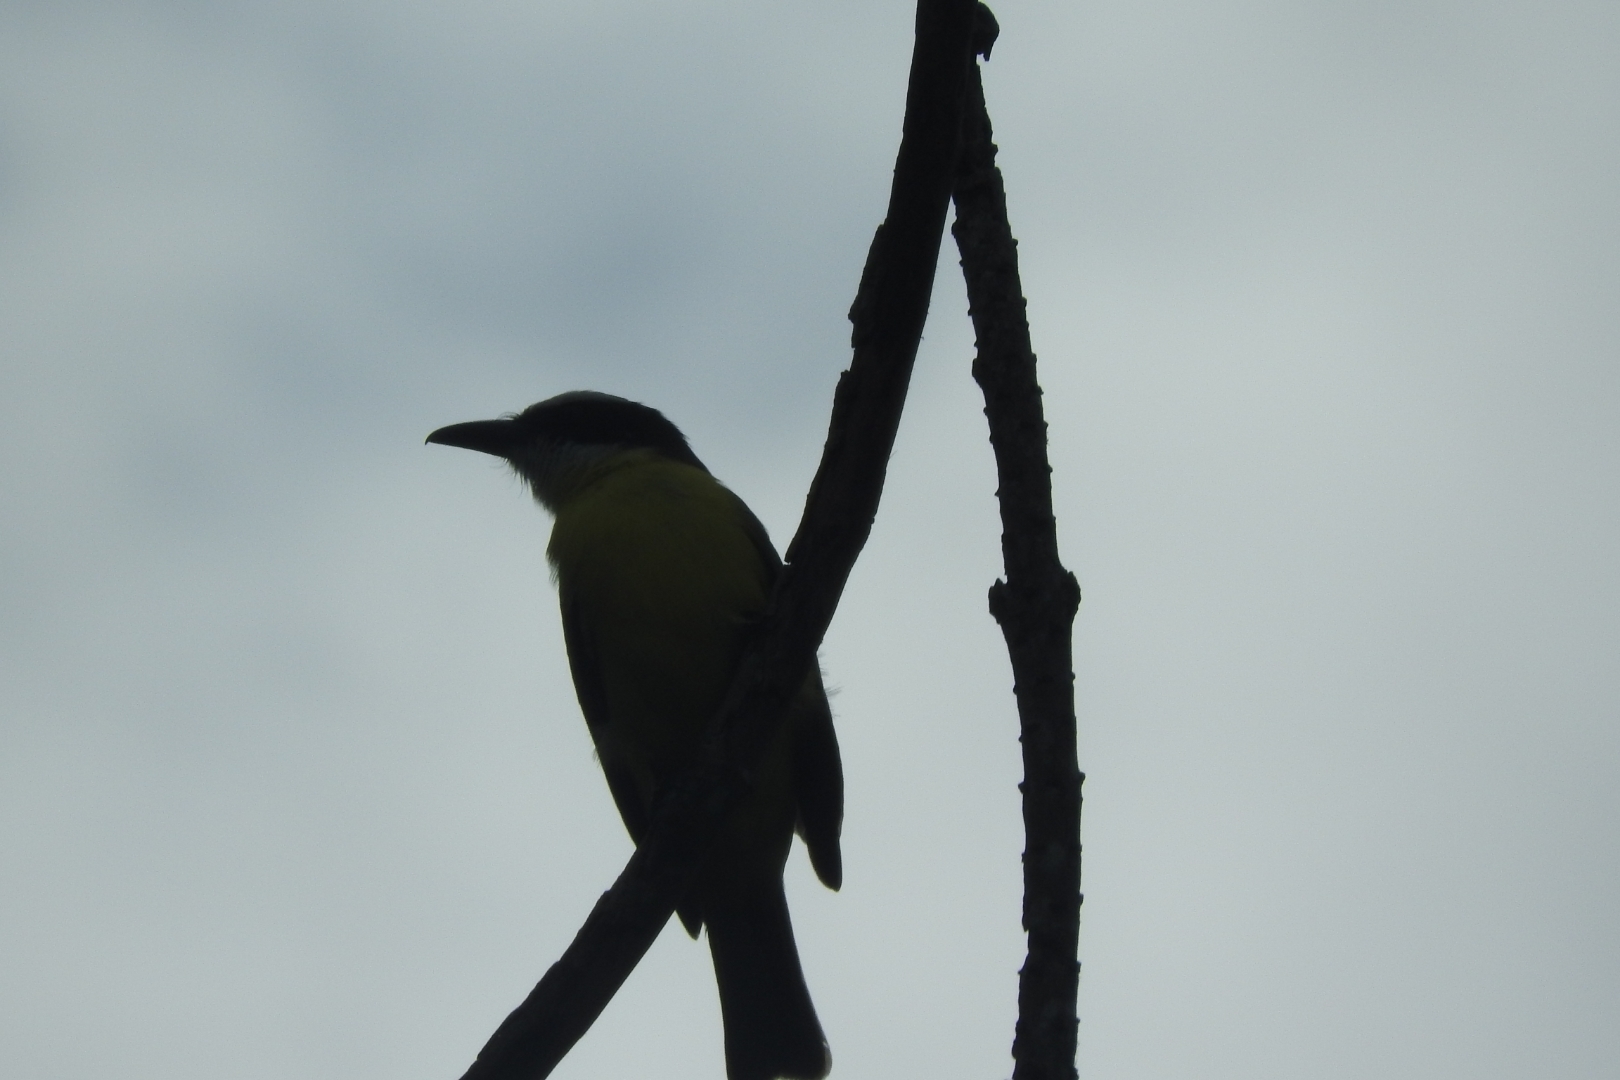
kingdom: Animalia
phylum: Chordata
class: Aves
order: Passeriformes
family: Tyrannidae
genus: Megarynchus
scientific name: Megarynchus pitangua
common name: Boat-billed flycatcher
